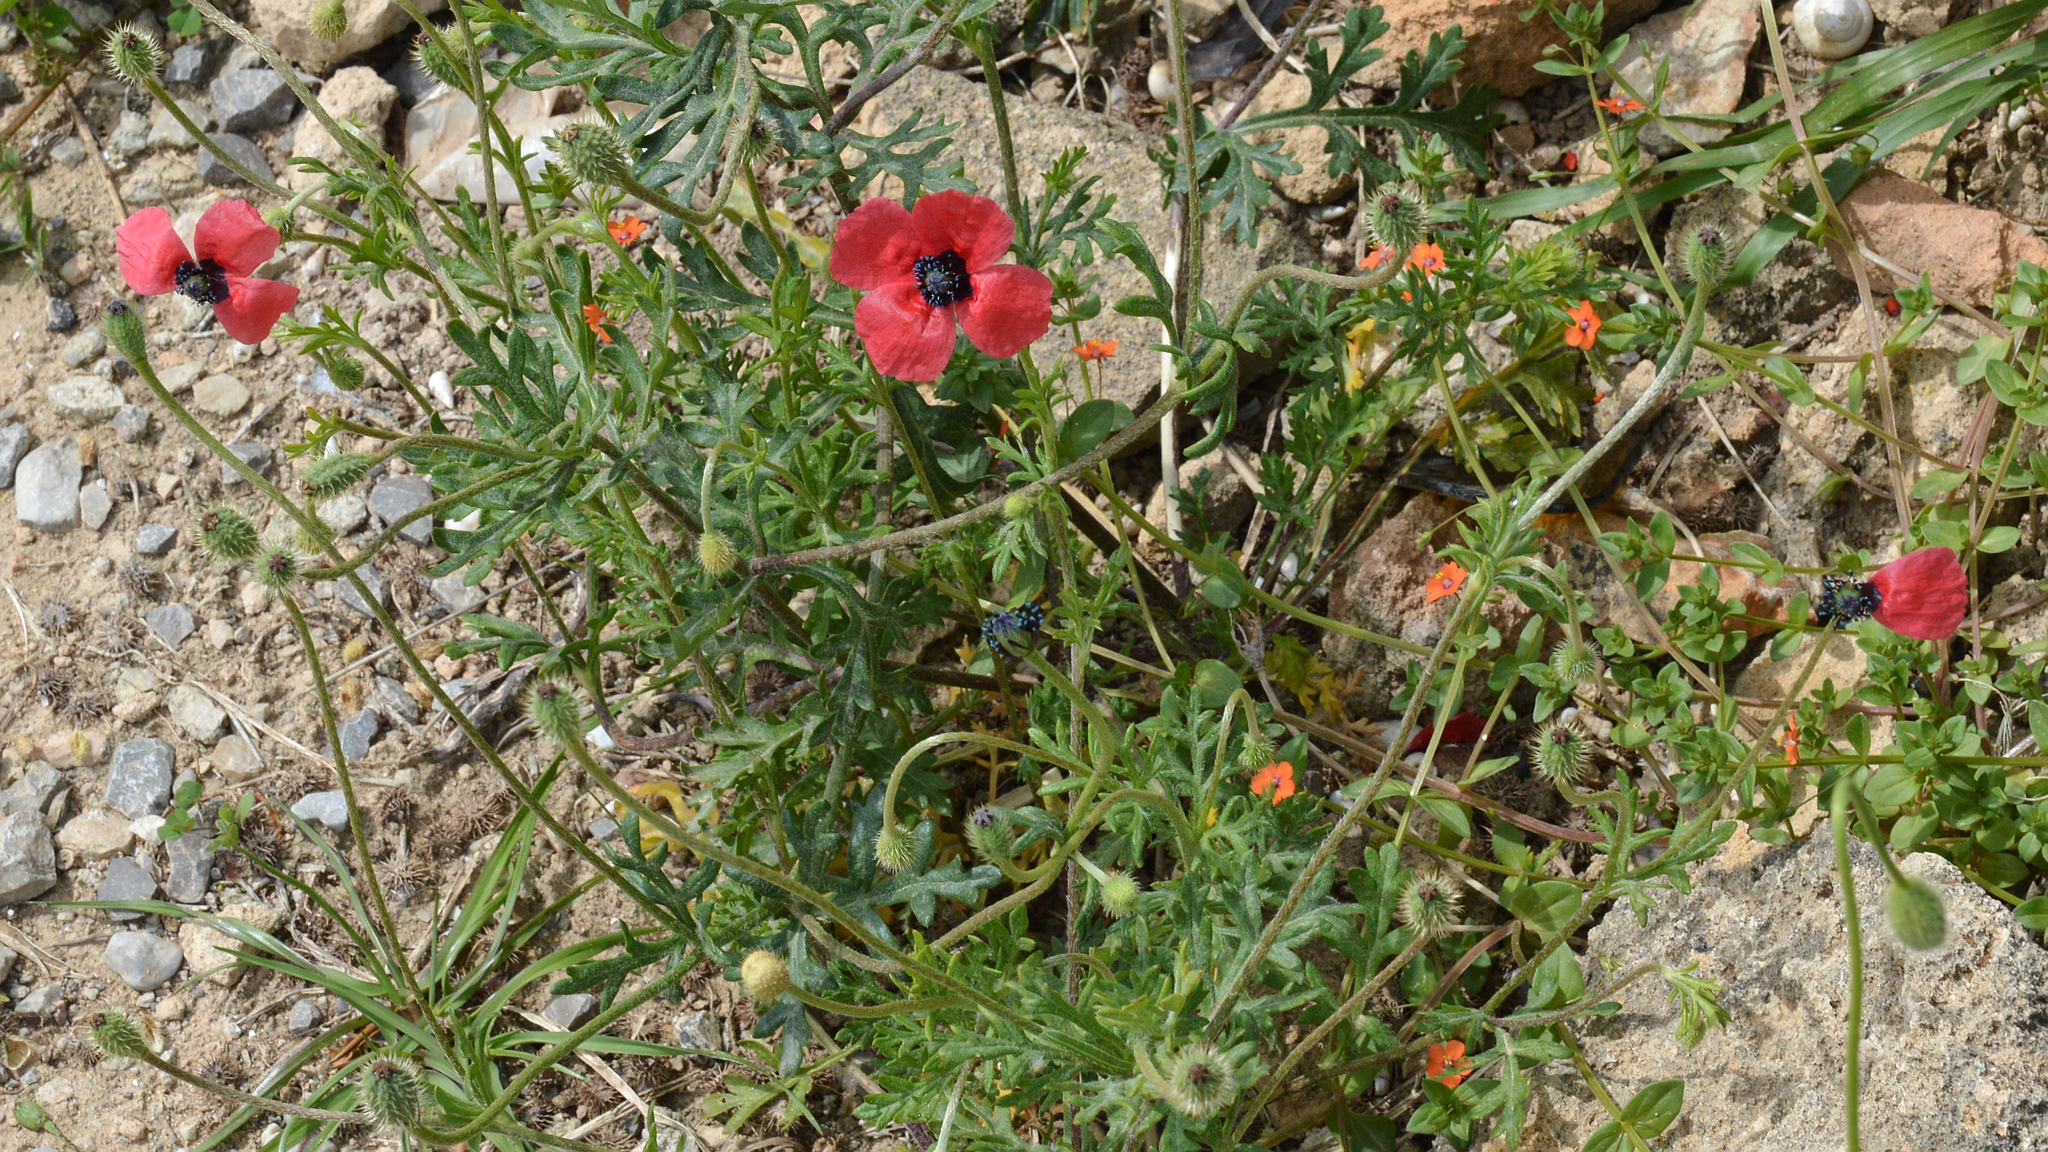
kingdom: Plantae
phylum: Tracheophyta
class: Magnoliopsida
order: Ranunculales
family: Papaveraceae
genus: Roemeria
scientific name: Roemeria hispida
